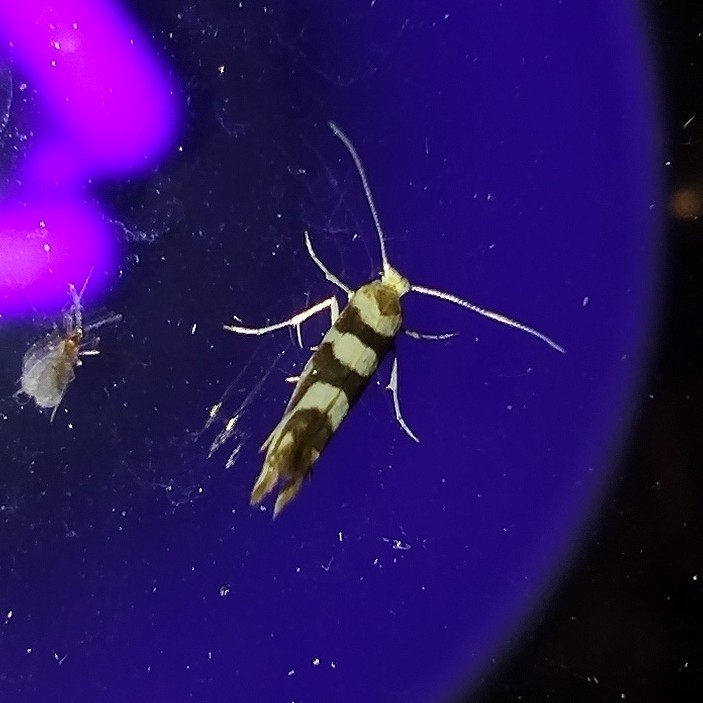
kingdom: Animalia
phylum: Arthropoda
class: Insecta
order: Lepidoptera
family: Argyresthiidae
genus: Argyresthia
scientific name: Argyresthia goedartella
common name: Golden argent
